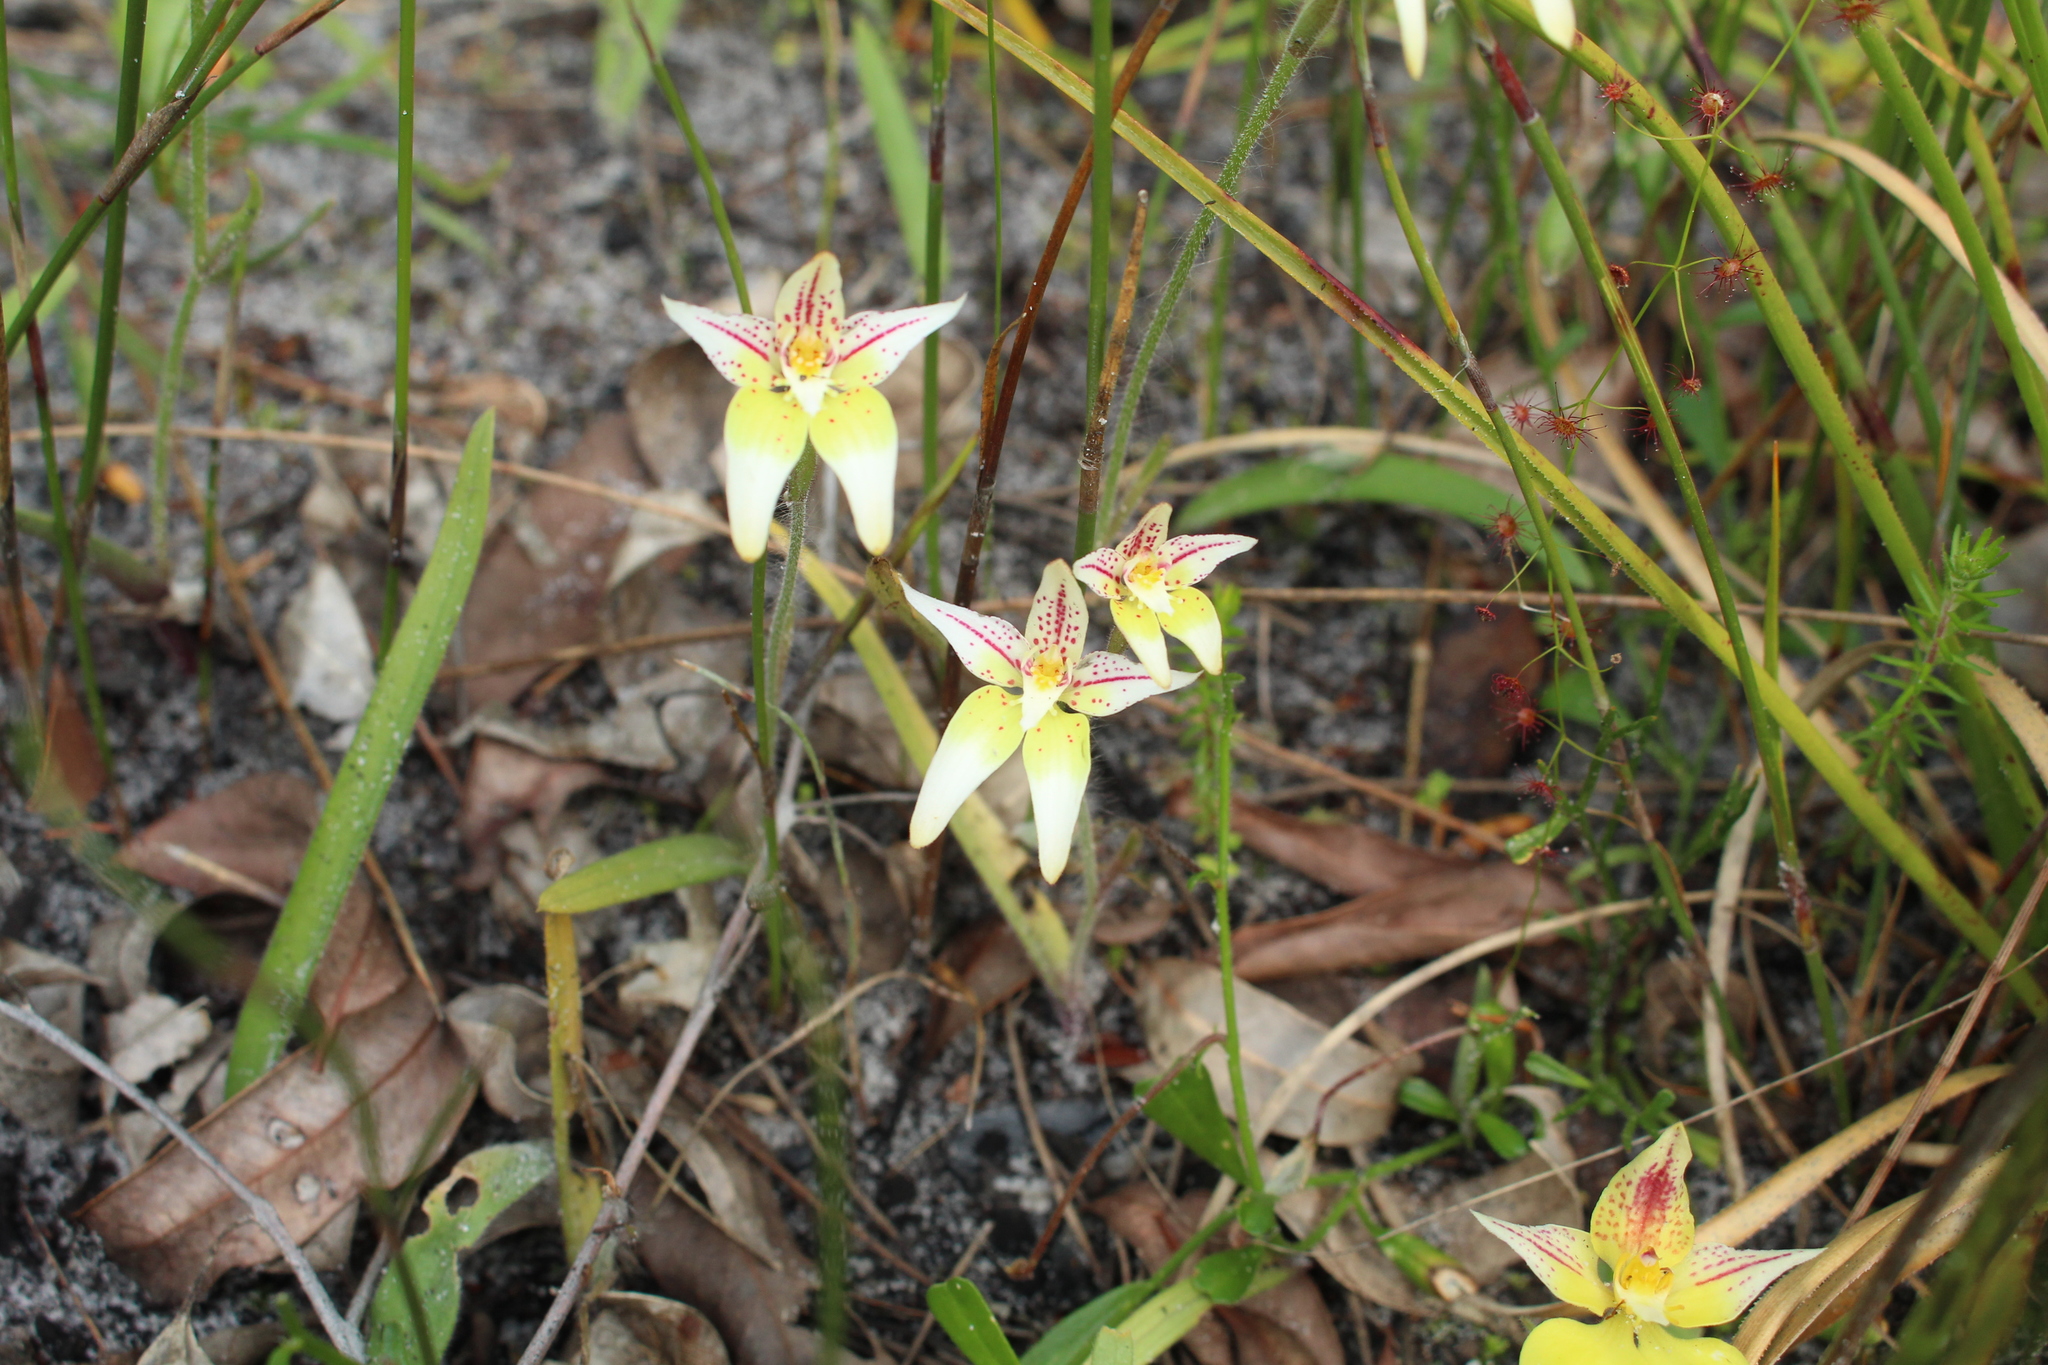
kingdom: Plantae
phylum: Tracheophyta
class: Liliopsida
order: Asparagales
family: Orchidaceae
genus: Caladenia
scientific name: Caladenia flava
